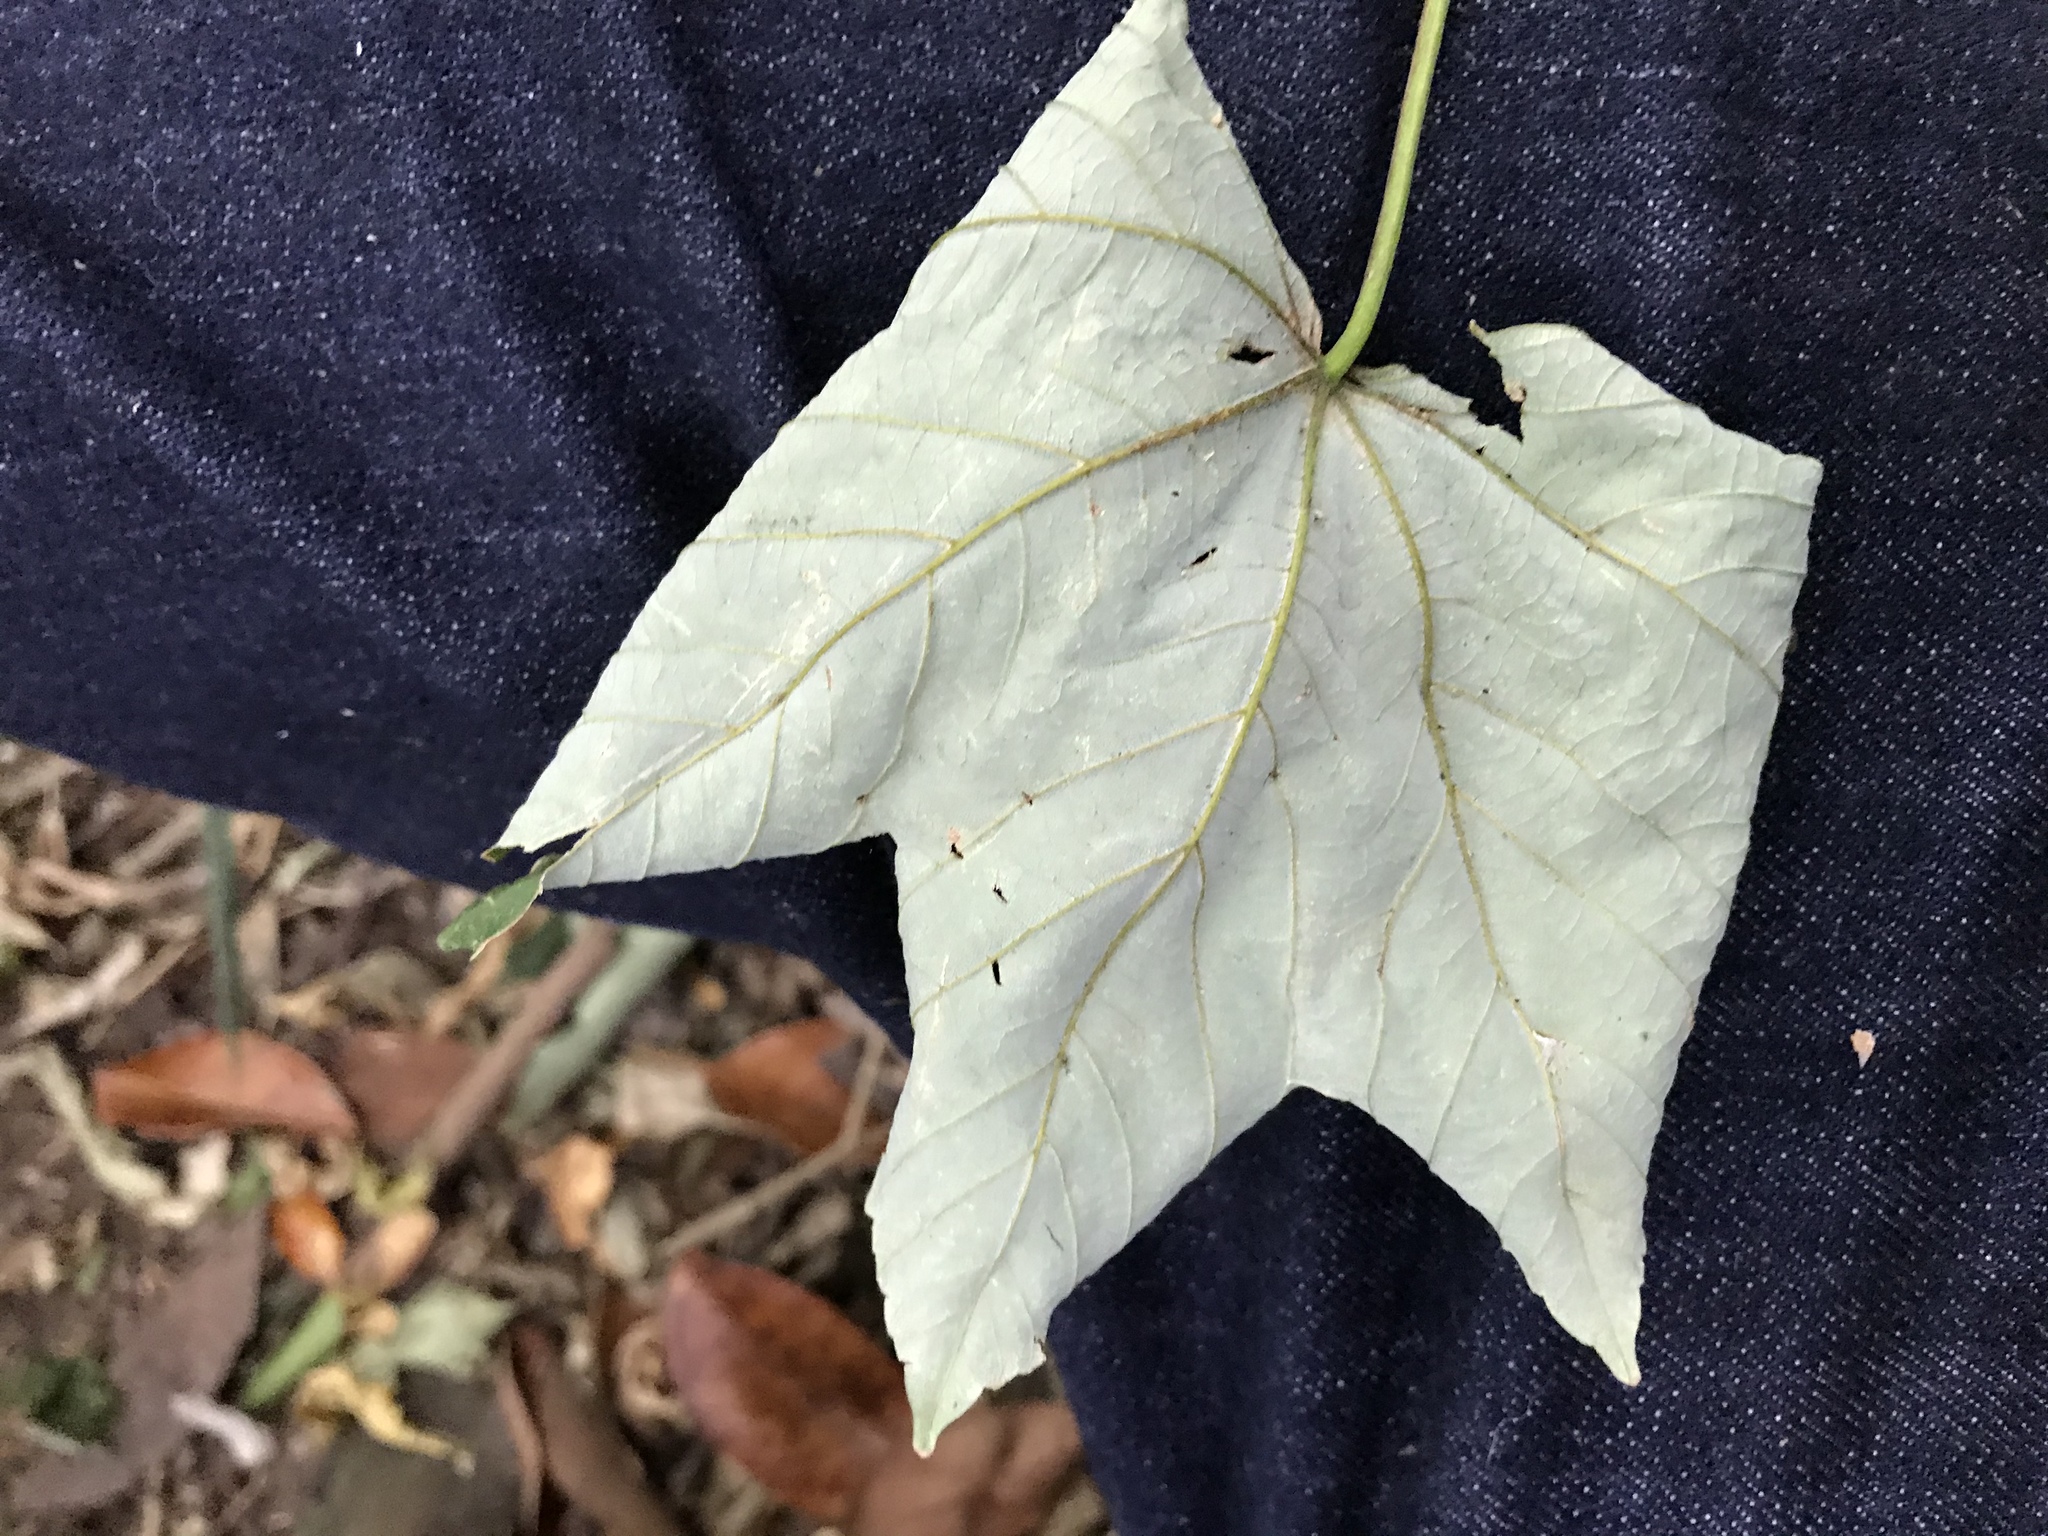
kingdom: Plantae
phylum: Tracheophyta
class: Magnoliopsida
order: Sapindales
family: Sapindaceae
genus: Acer
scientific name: Acer pseudoplatanus
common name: Sycamore
